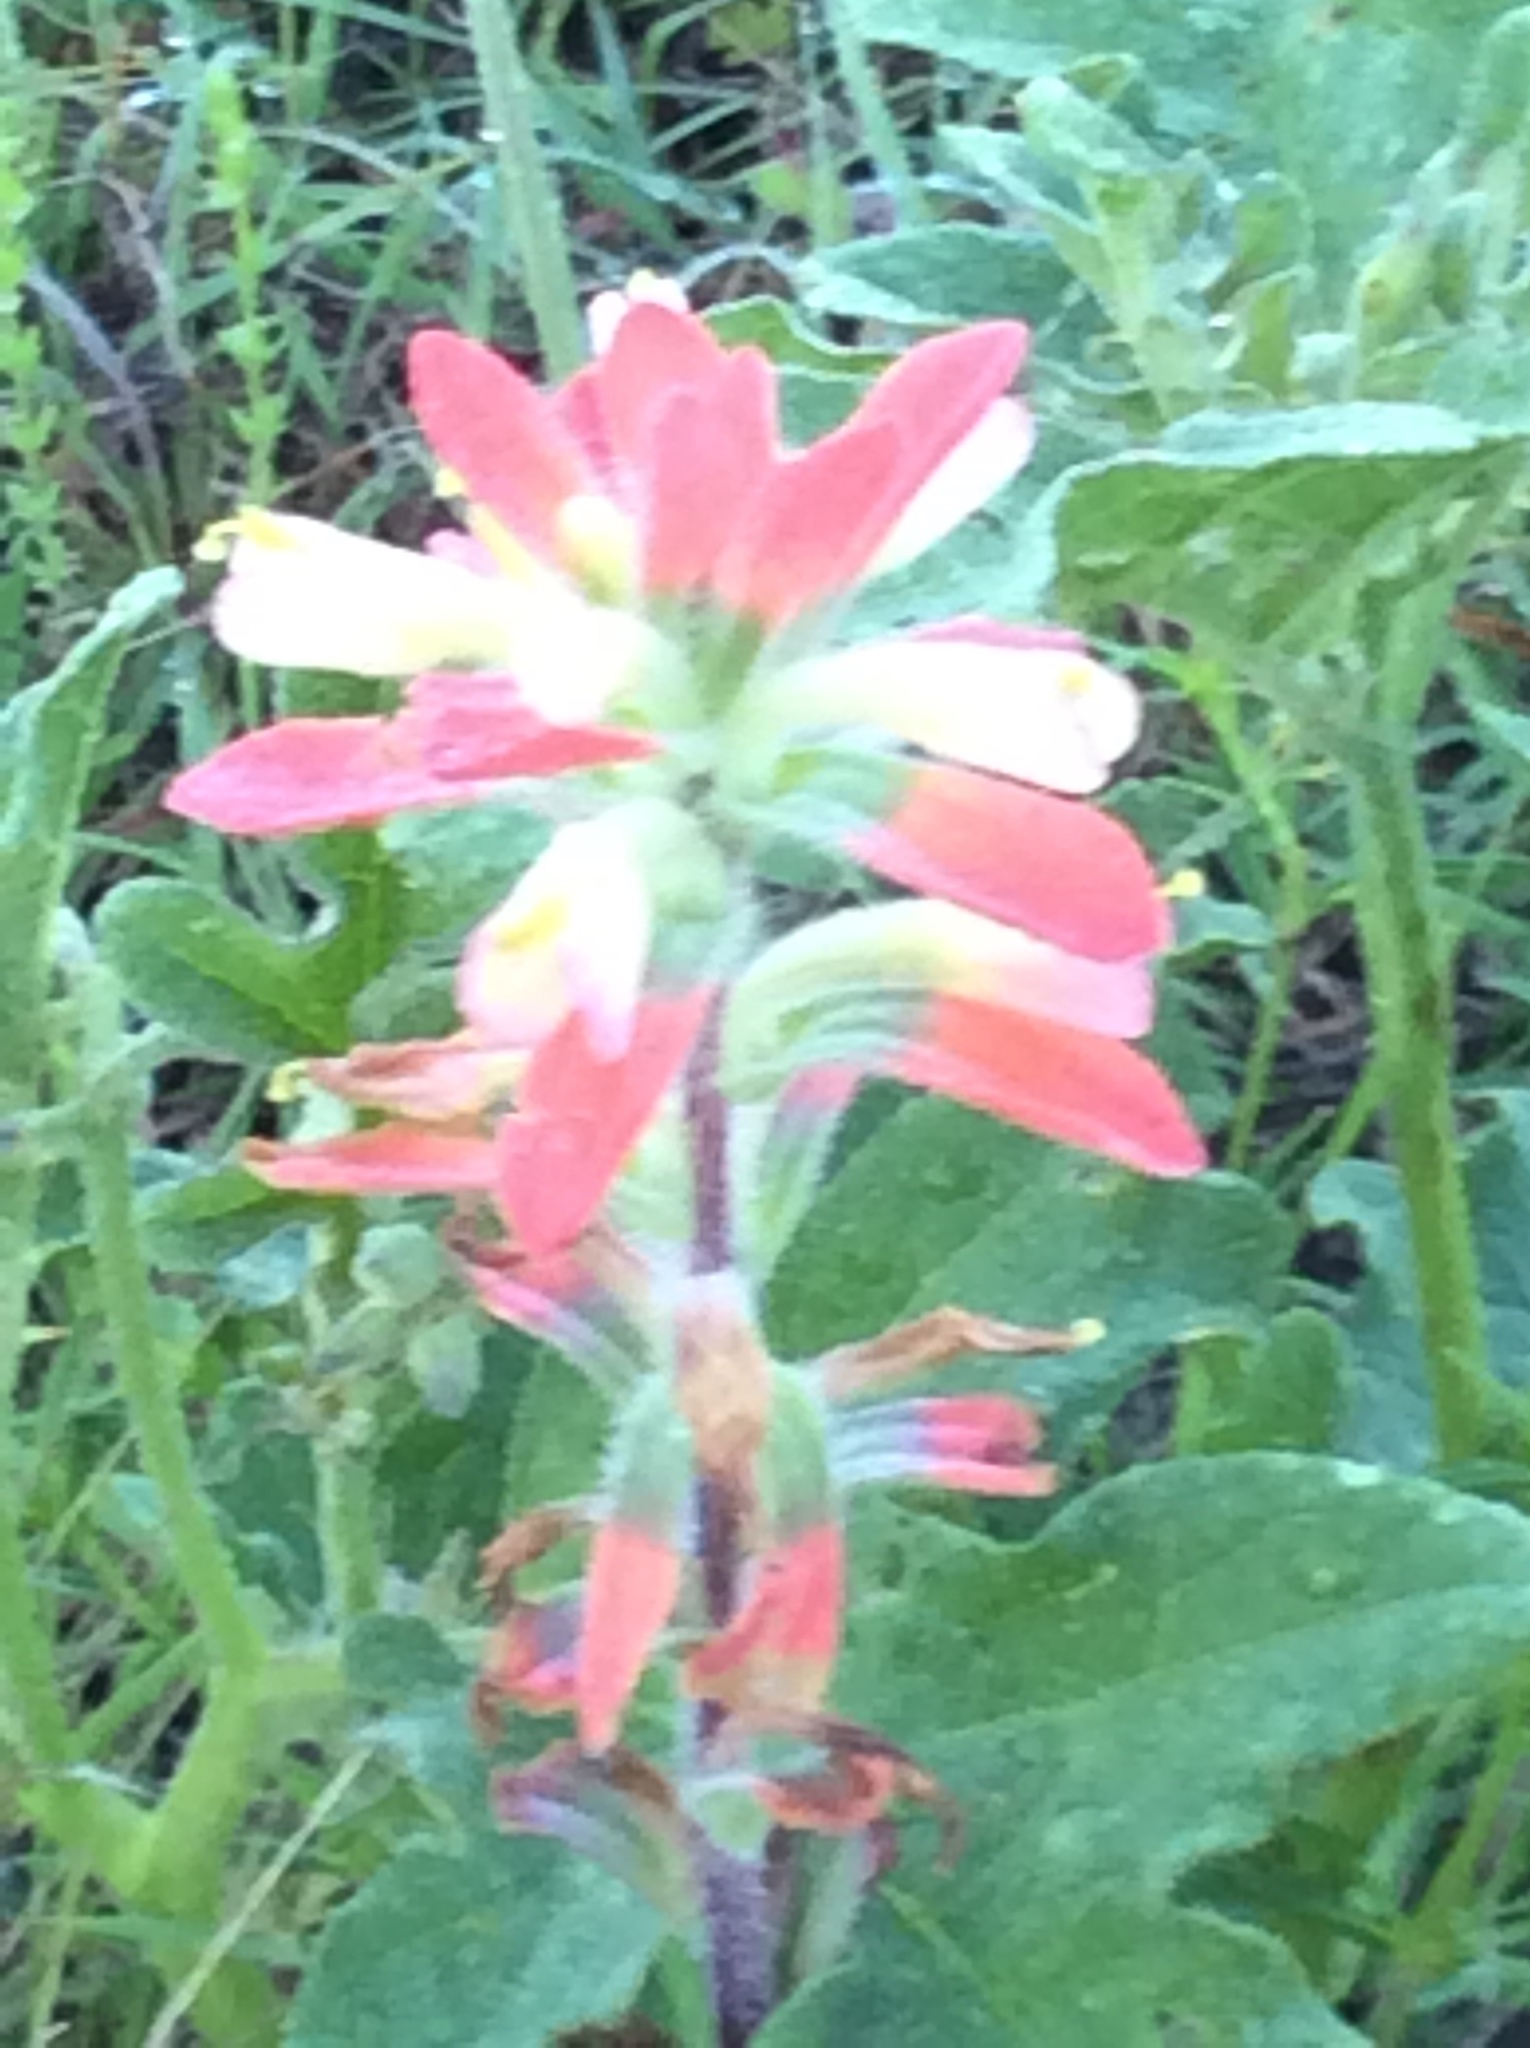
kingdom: Plantae
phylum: Tracheophyta
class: Magnoliopsida
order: Lamiales
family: Orobanchaceae
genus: Castilleja
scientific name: Castilleja indivisa
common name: Texas paintbrush
